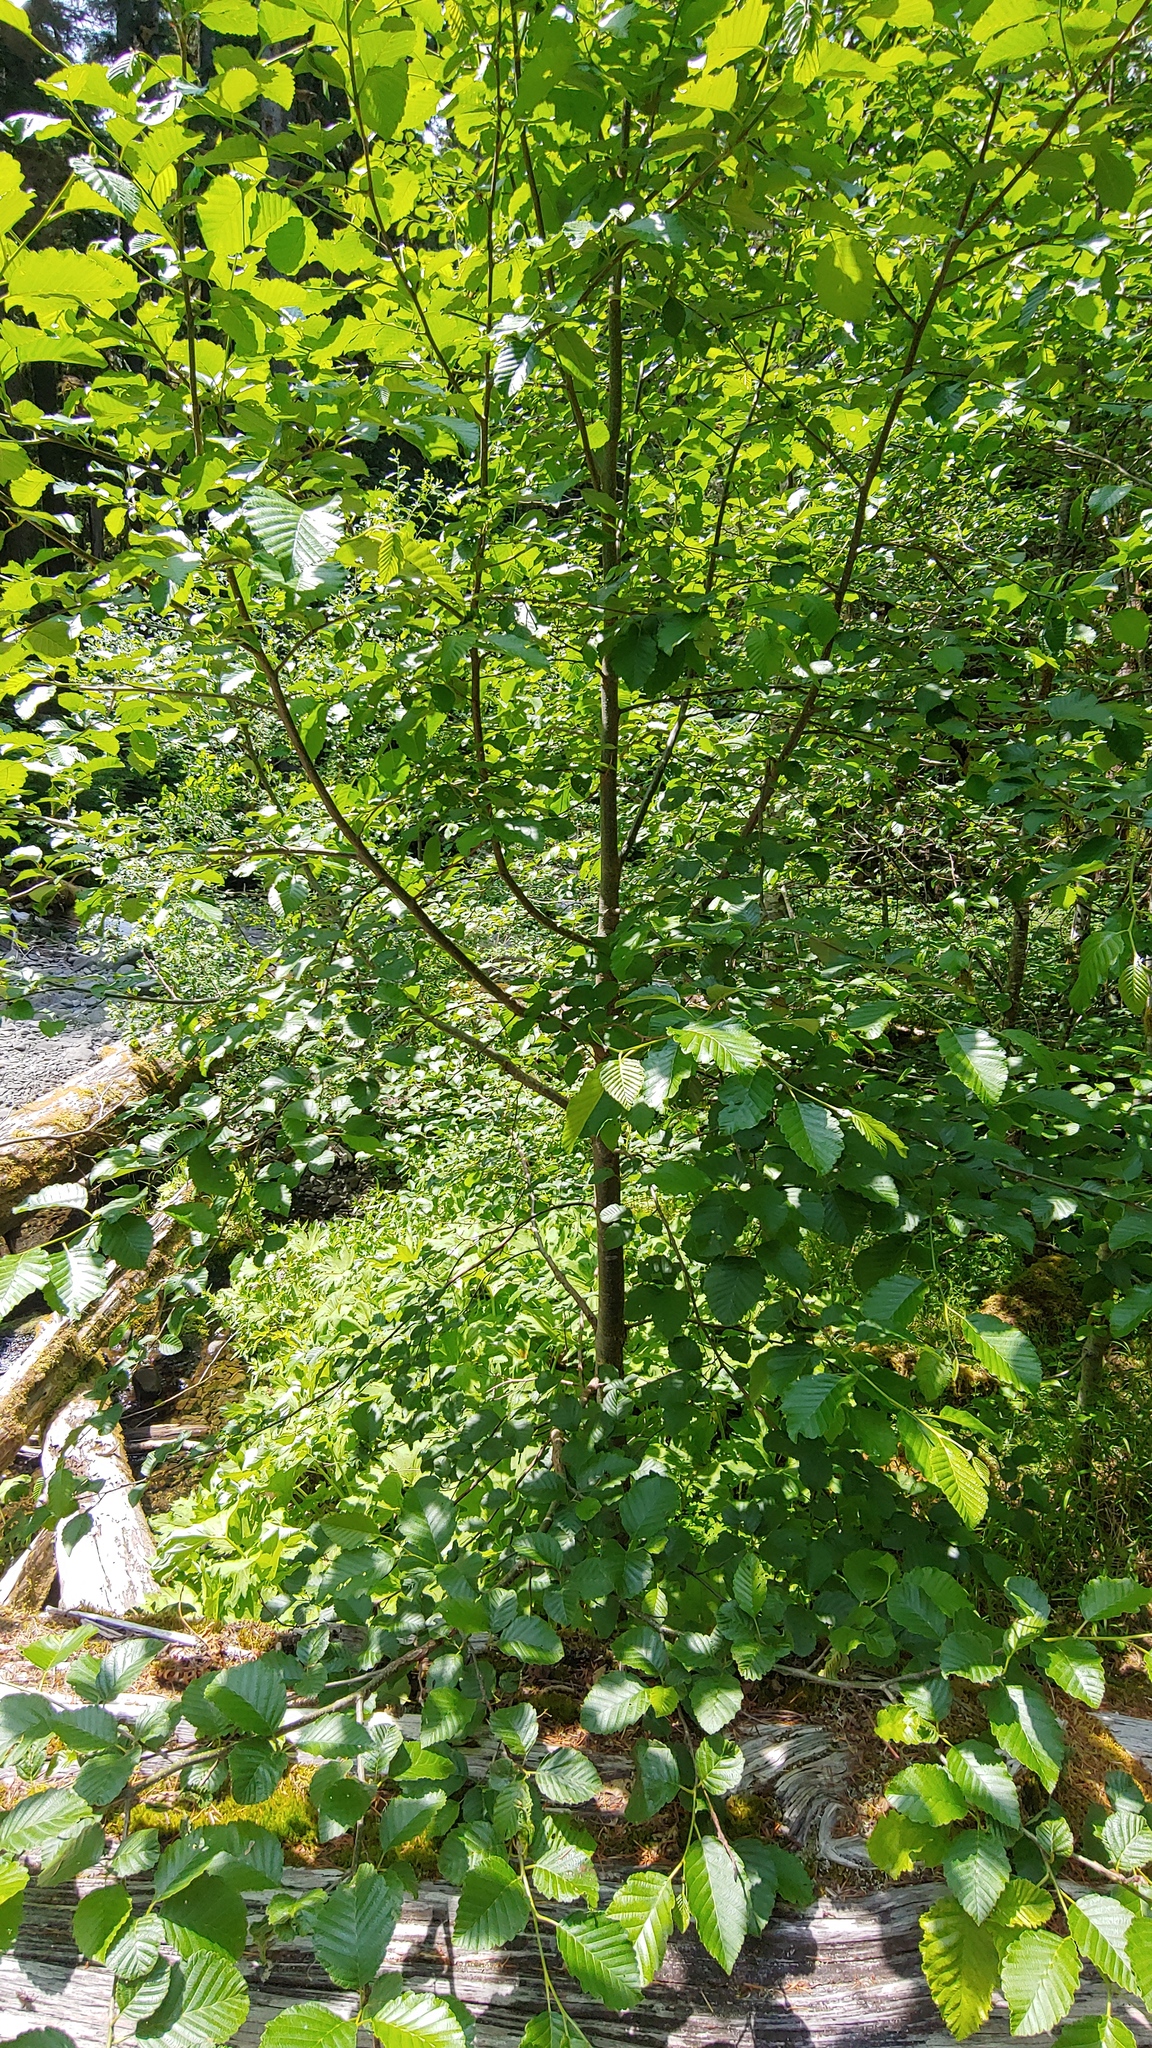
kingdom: Plantae
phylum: Tracheophyta
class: Magnoliopsida
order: Fagales
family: Betulaceae
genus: Alnus
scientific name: Alnus rubra
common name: Red alder
